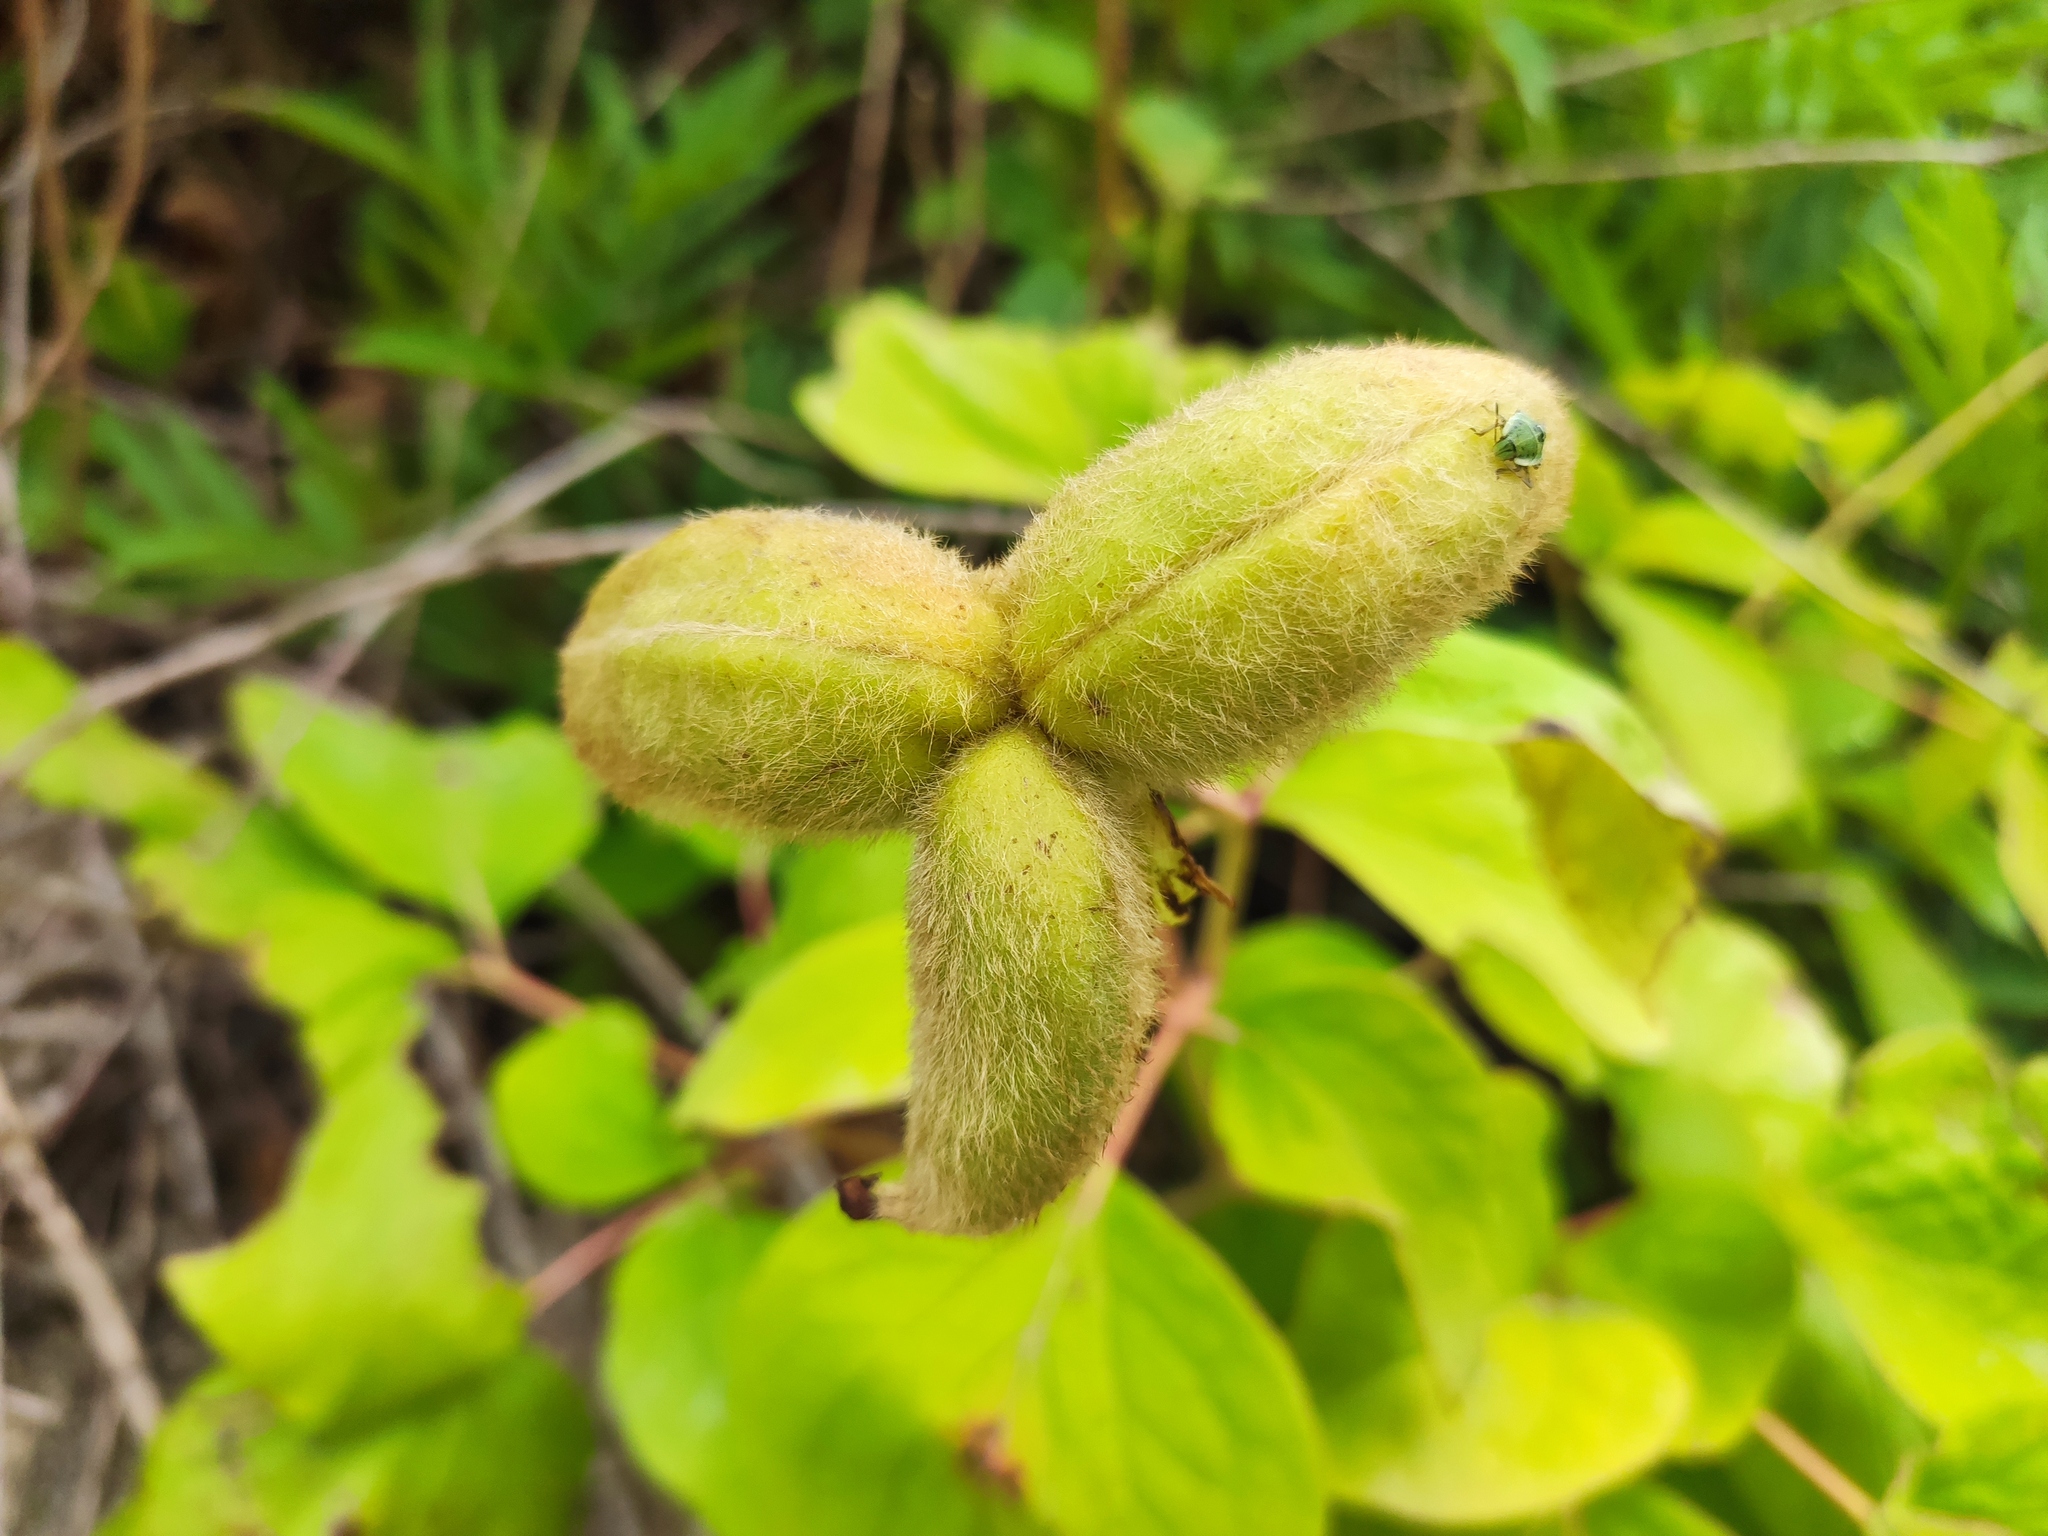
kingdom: Plantae
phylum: Tracheophyta
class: Magnoliopsida
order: Saxifragales
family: Paeoniaceae
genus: Paeonia
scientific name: Paeonia caucasica
